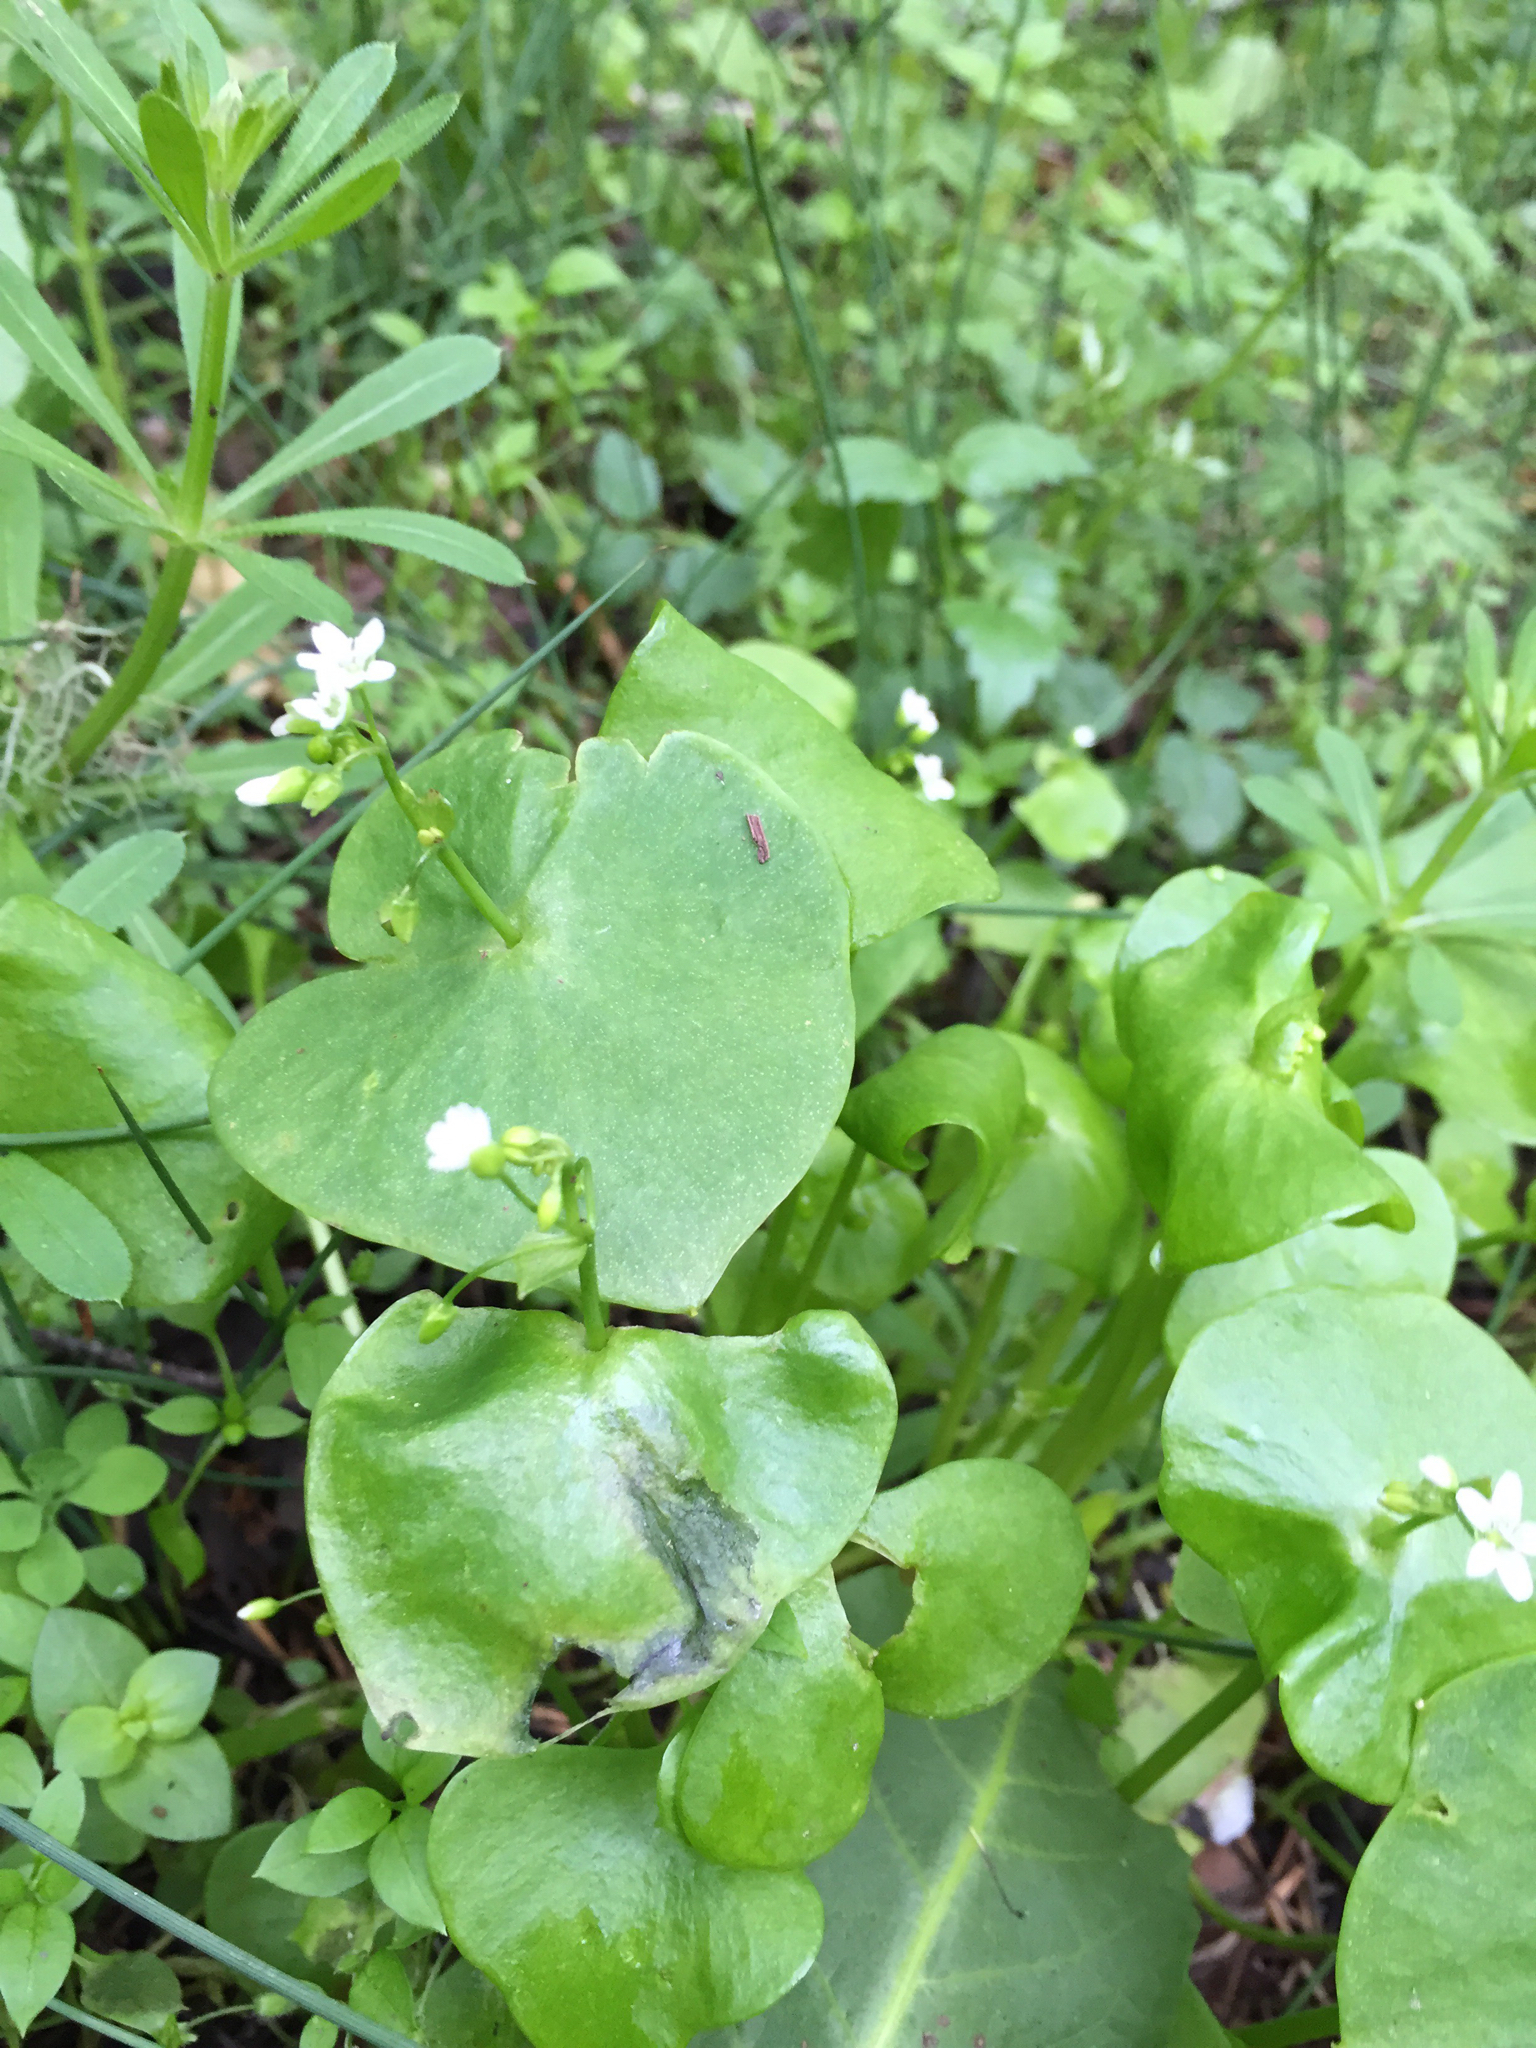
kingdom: Plantae
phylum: Tracheophyta
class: Magnoliopsida
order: Caryophyllales
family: Montiaceae
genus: Claytonia
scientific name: Claytonia perfoliata
